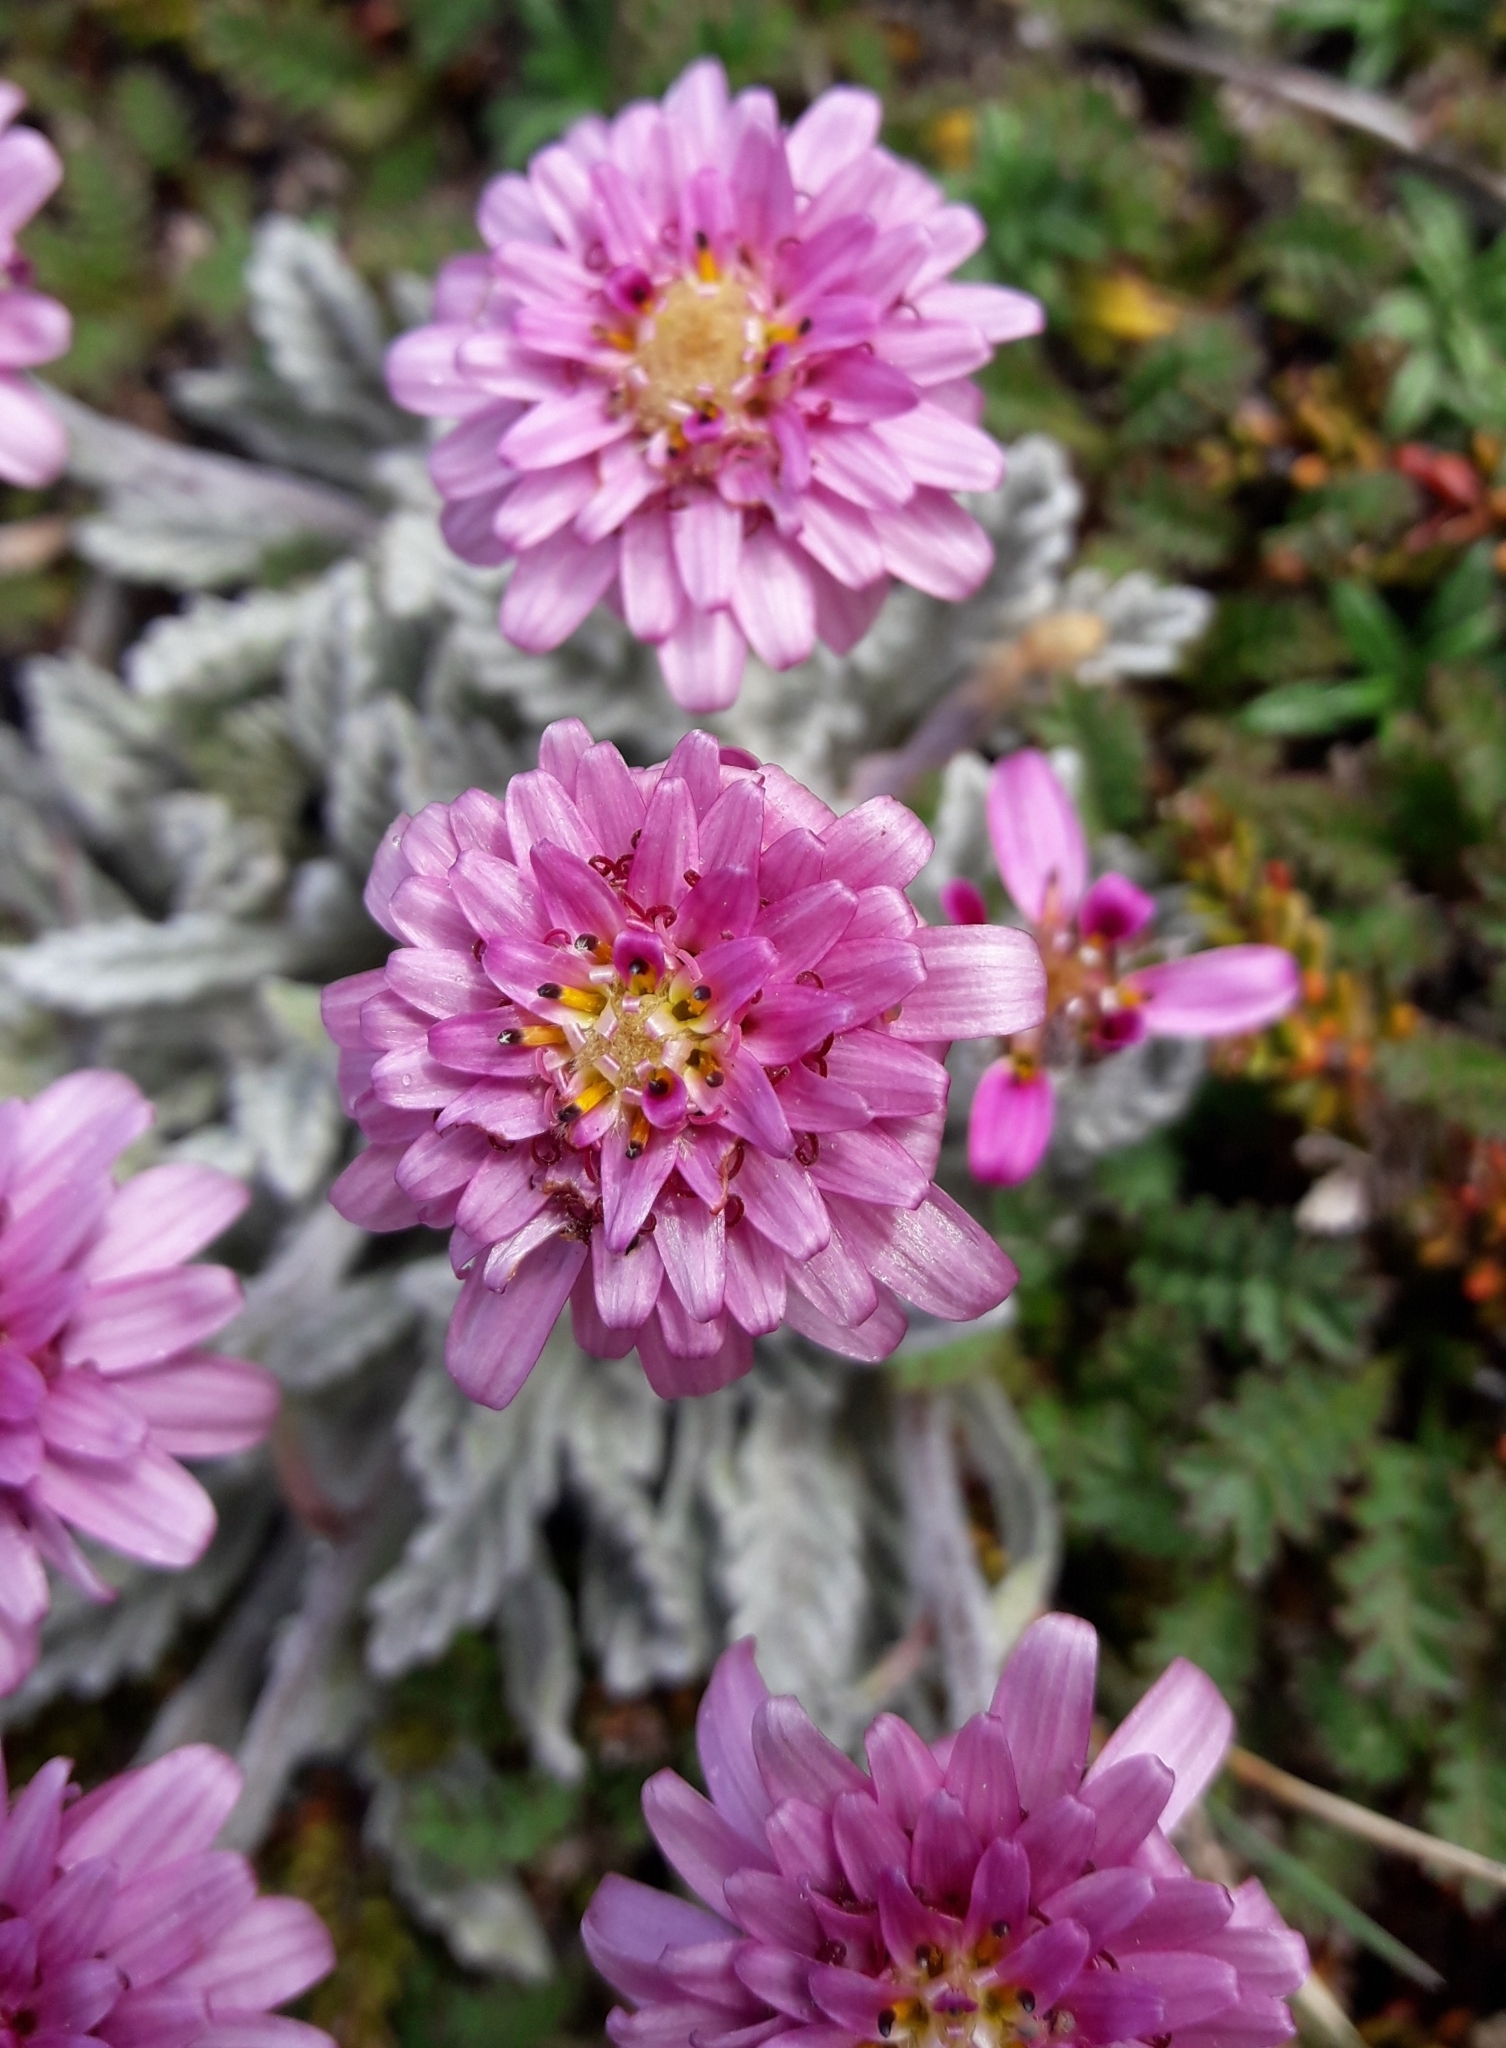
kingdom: Plantae
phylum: Tracheophyta
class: Magnoliopsida
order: Asterales
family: Asteraceae
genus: Leucheria
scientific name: Leucheria hahnii
